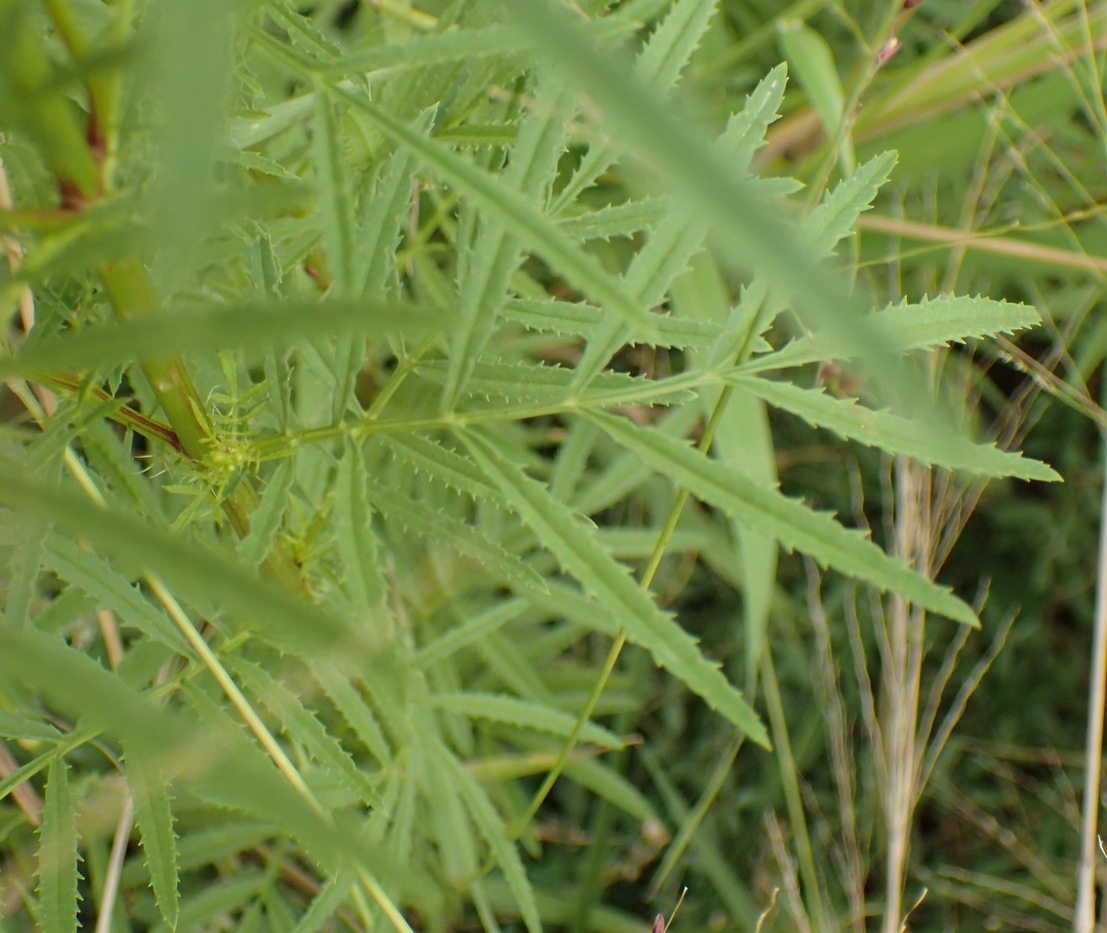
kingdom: Plantae
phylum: Tracheophyta
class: Magnoliopsida
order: Asterales
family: Asteraceae
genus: Tagetes
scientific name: Tagetes minuta
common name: Muster john henry
